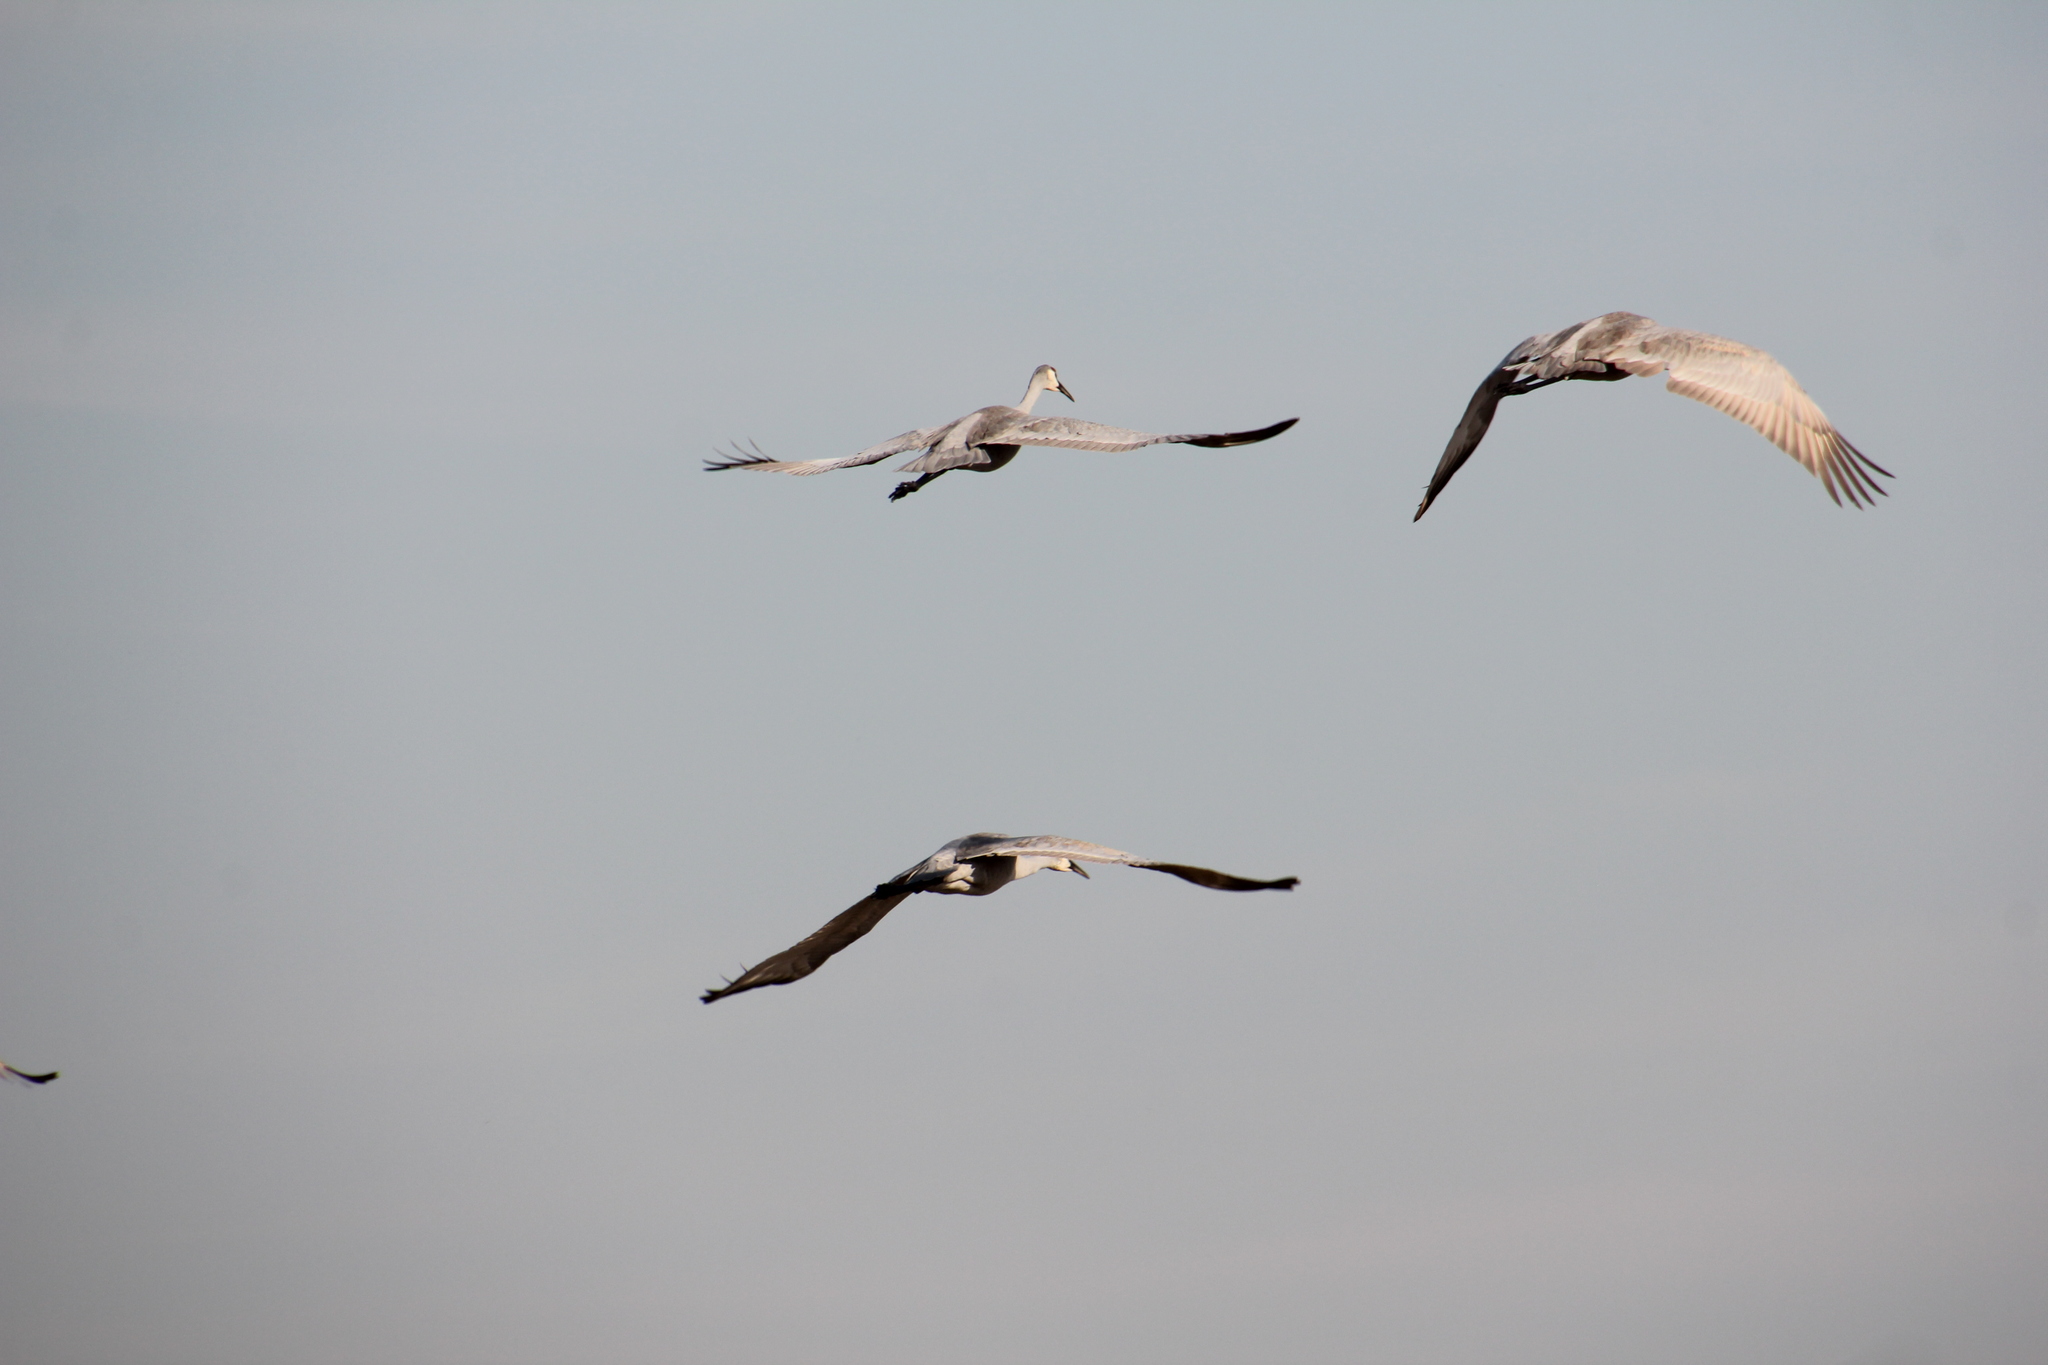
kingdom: Animalia
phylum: Chordata
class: Aves
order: Gruiformes
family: Gruidae
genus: Grus
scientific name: Grus canadensis
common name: Sandhill crane
